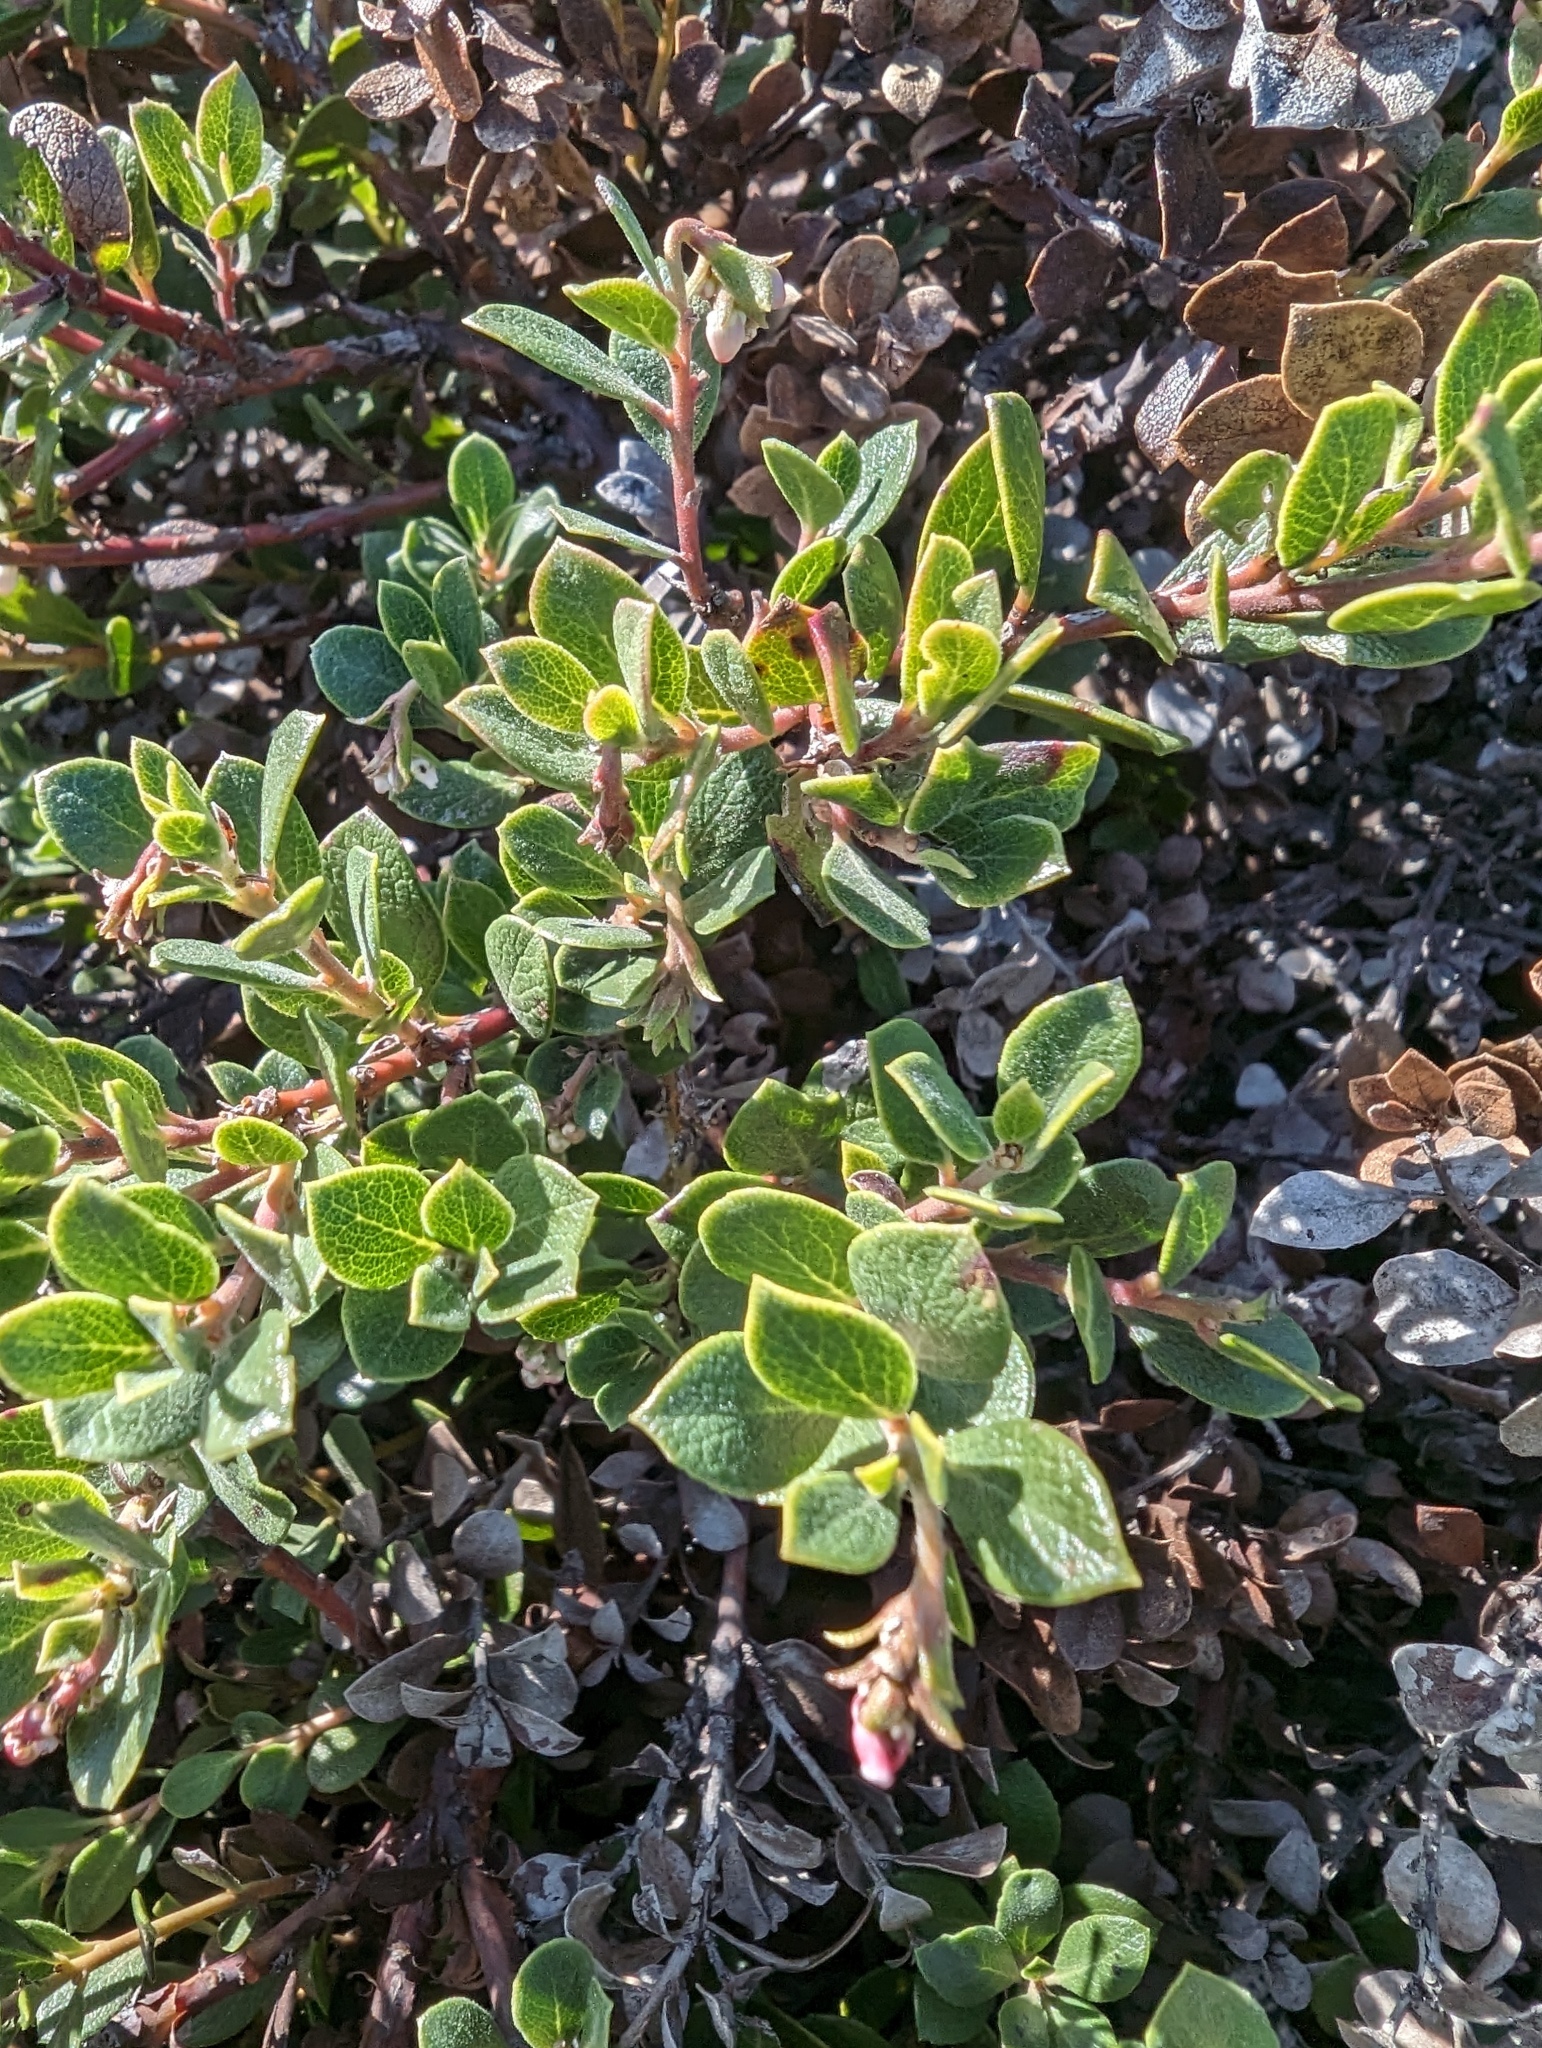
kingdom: Plantae
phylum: Tracheophyta
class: Magnoliopsida
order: Ericales
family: Ericaceae
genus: Arctostaphylos
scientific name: Arctostaphylos pacifica
